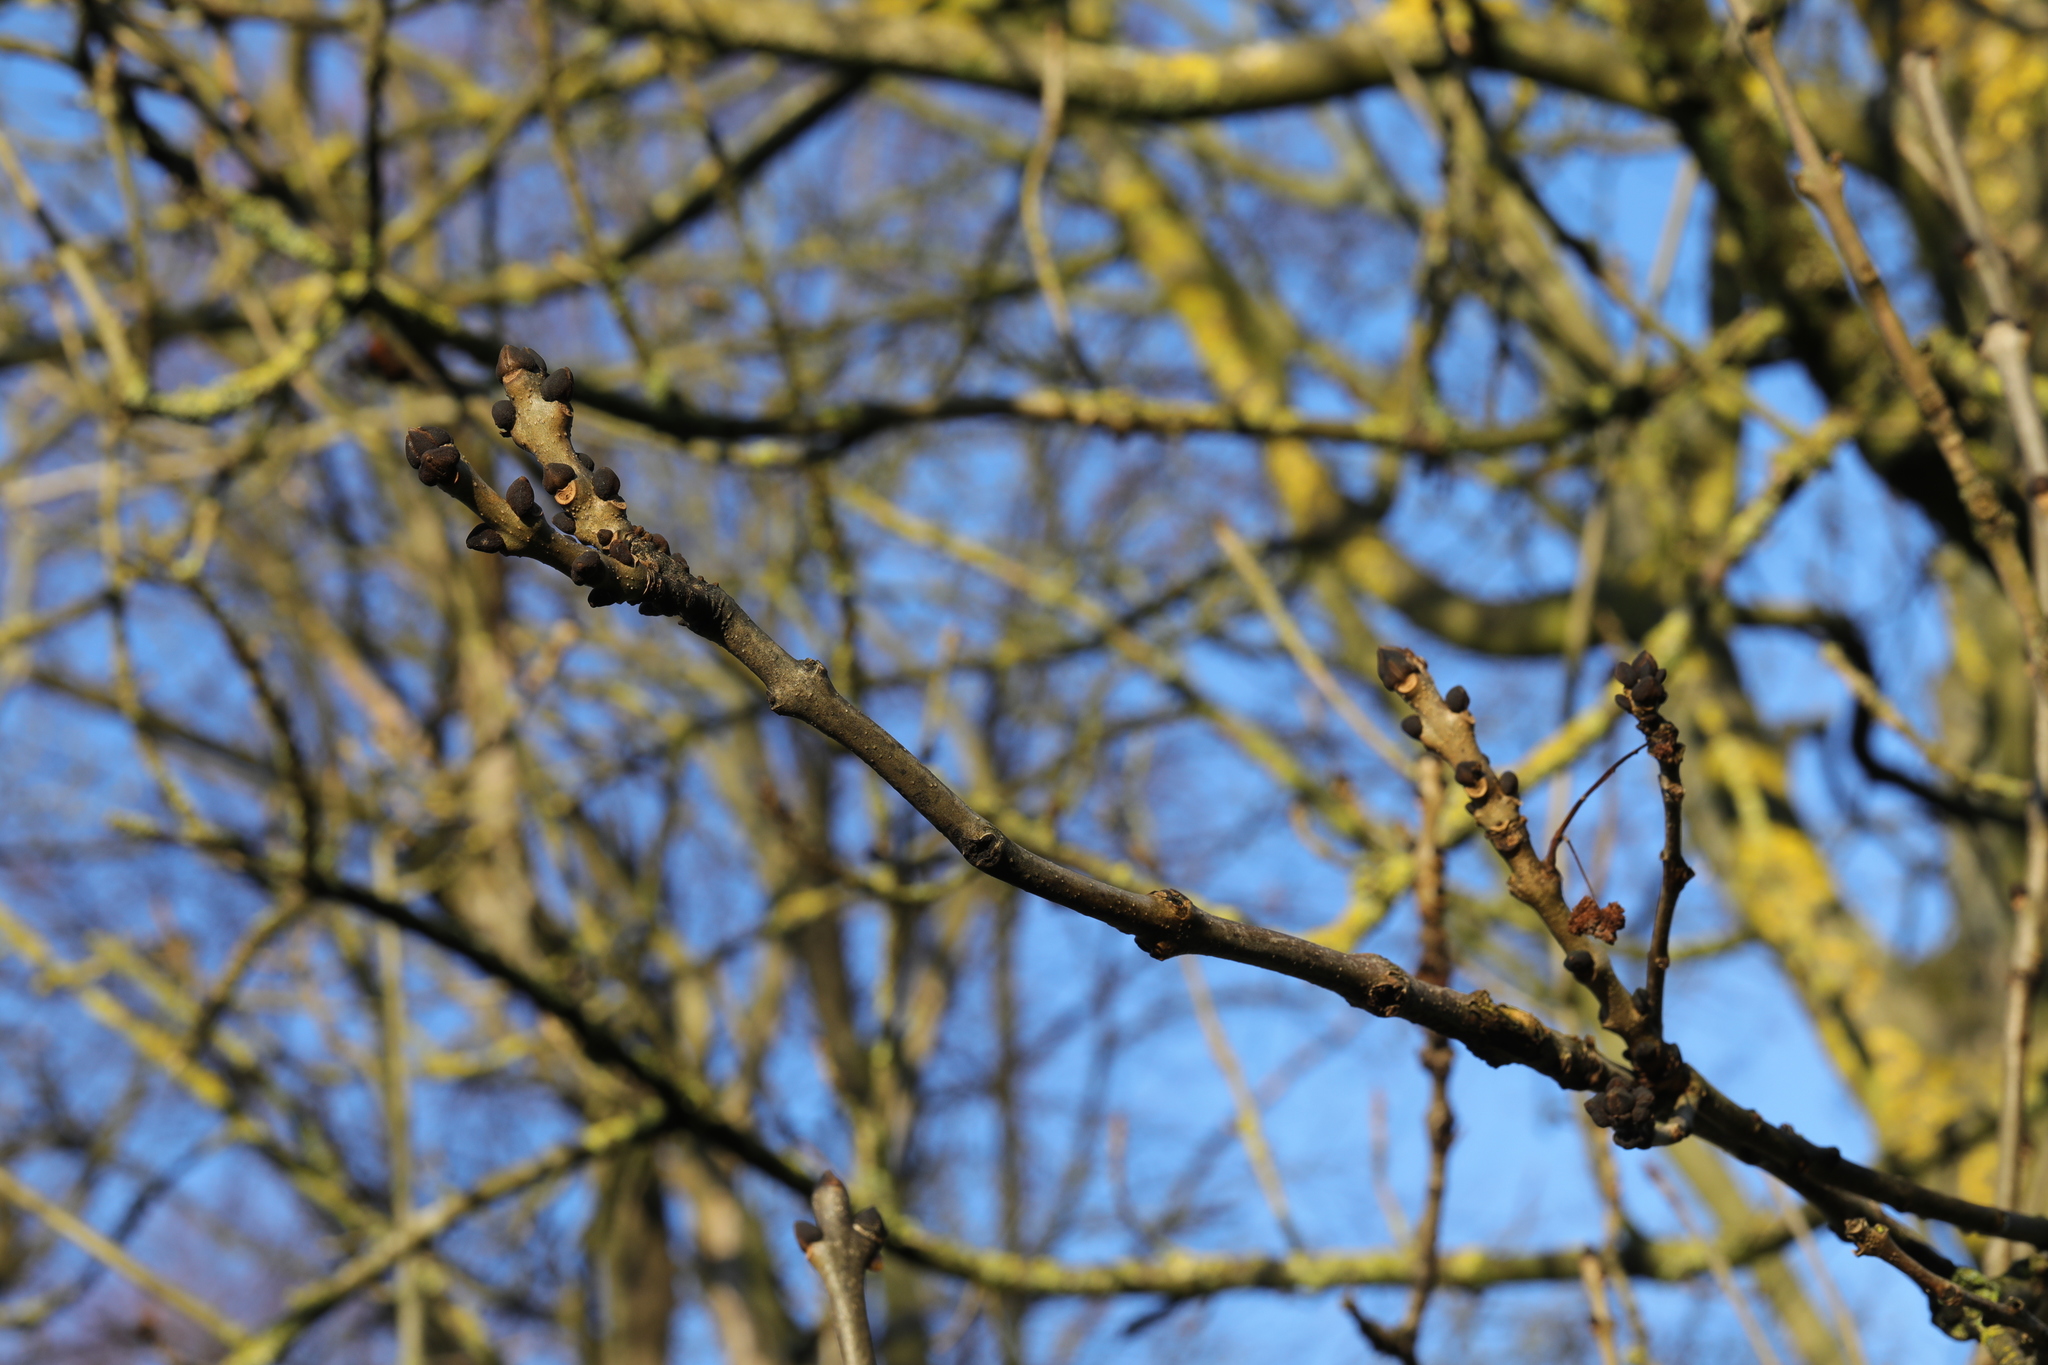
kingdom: Plantae
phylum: Tracheophyta
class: Magnoliopsida
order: Lamiales
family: Oleaceae
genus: Fraxinus
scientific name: Fraxinus excelsior
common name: European ash
